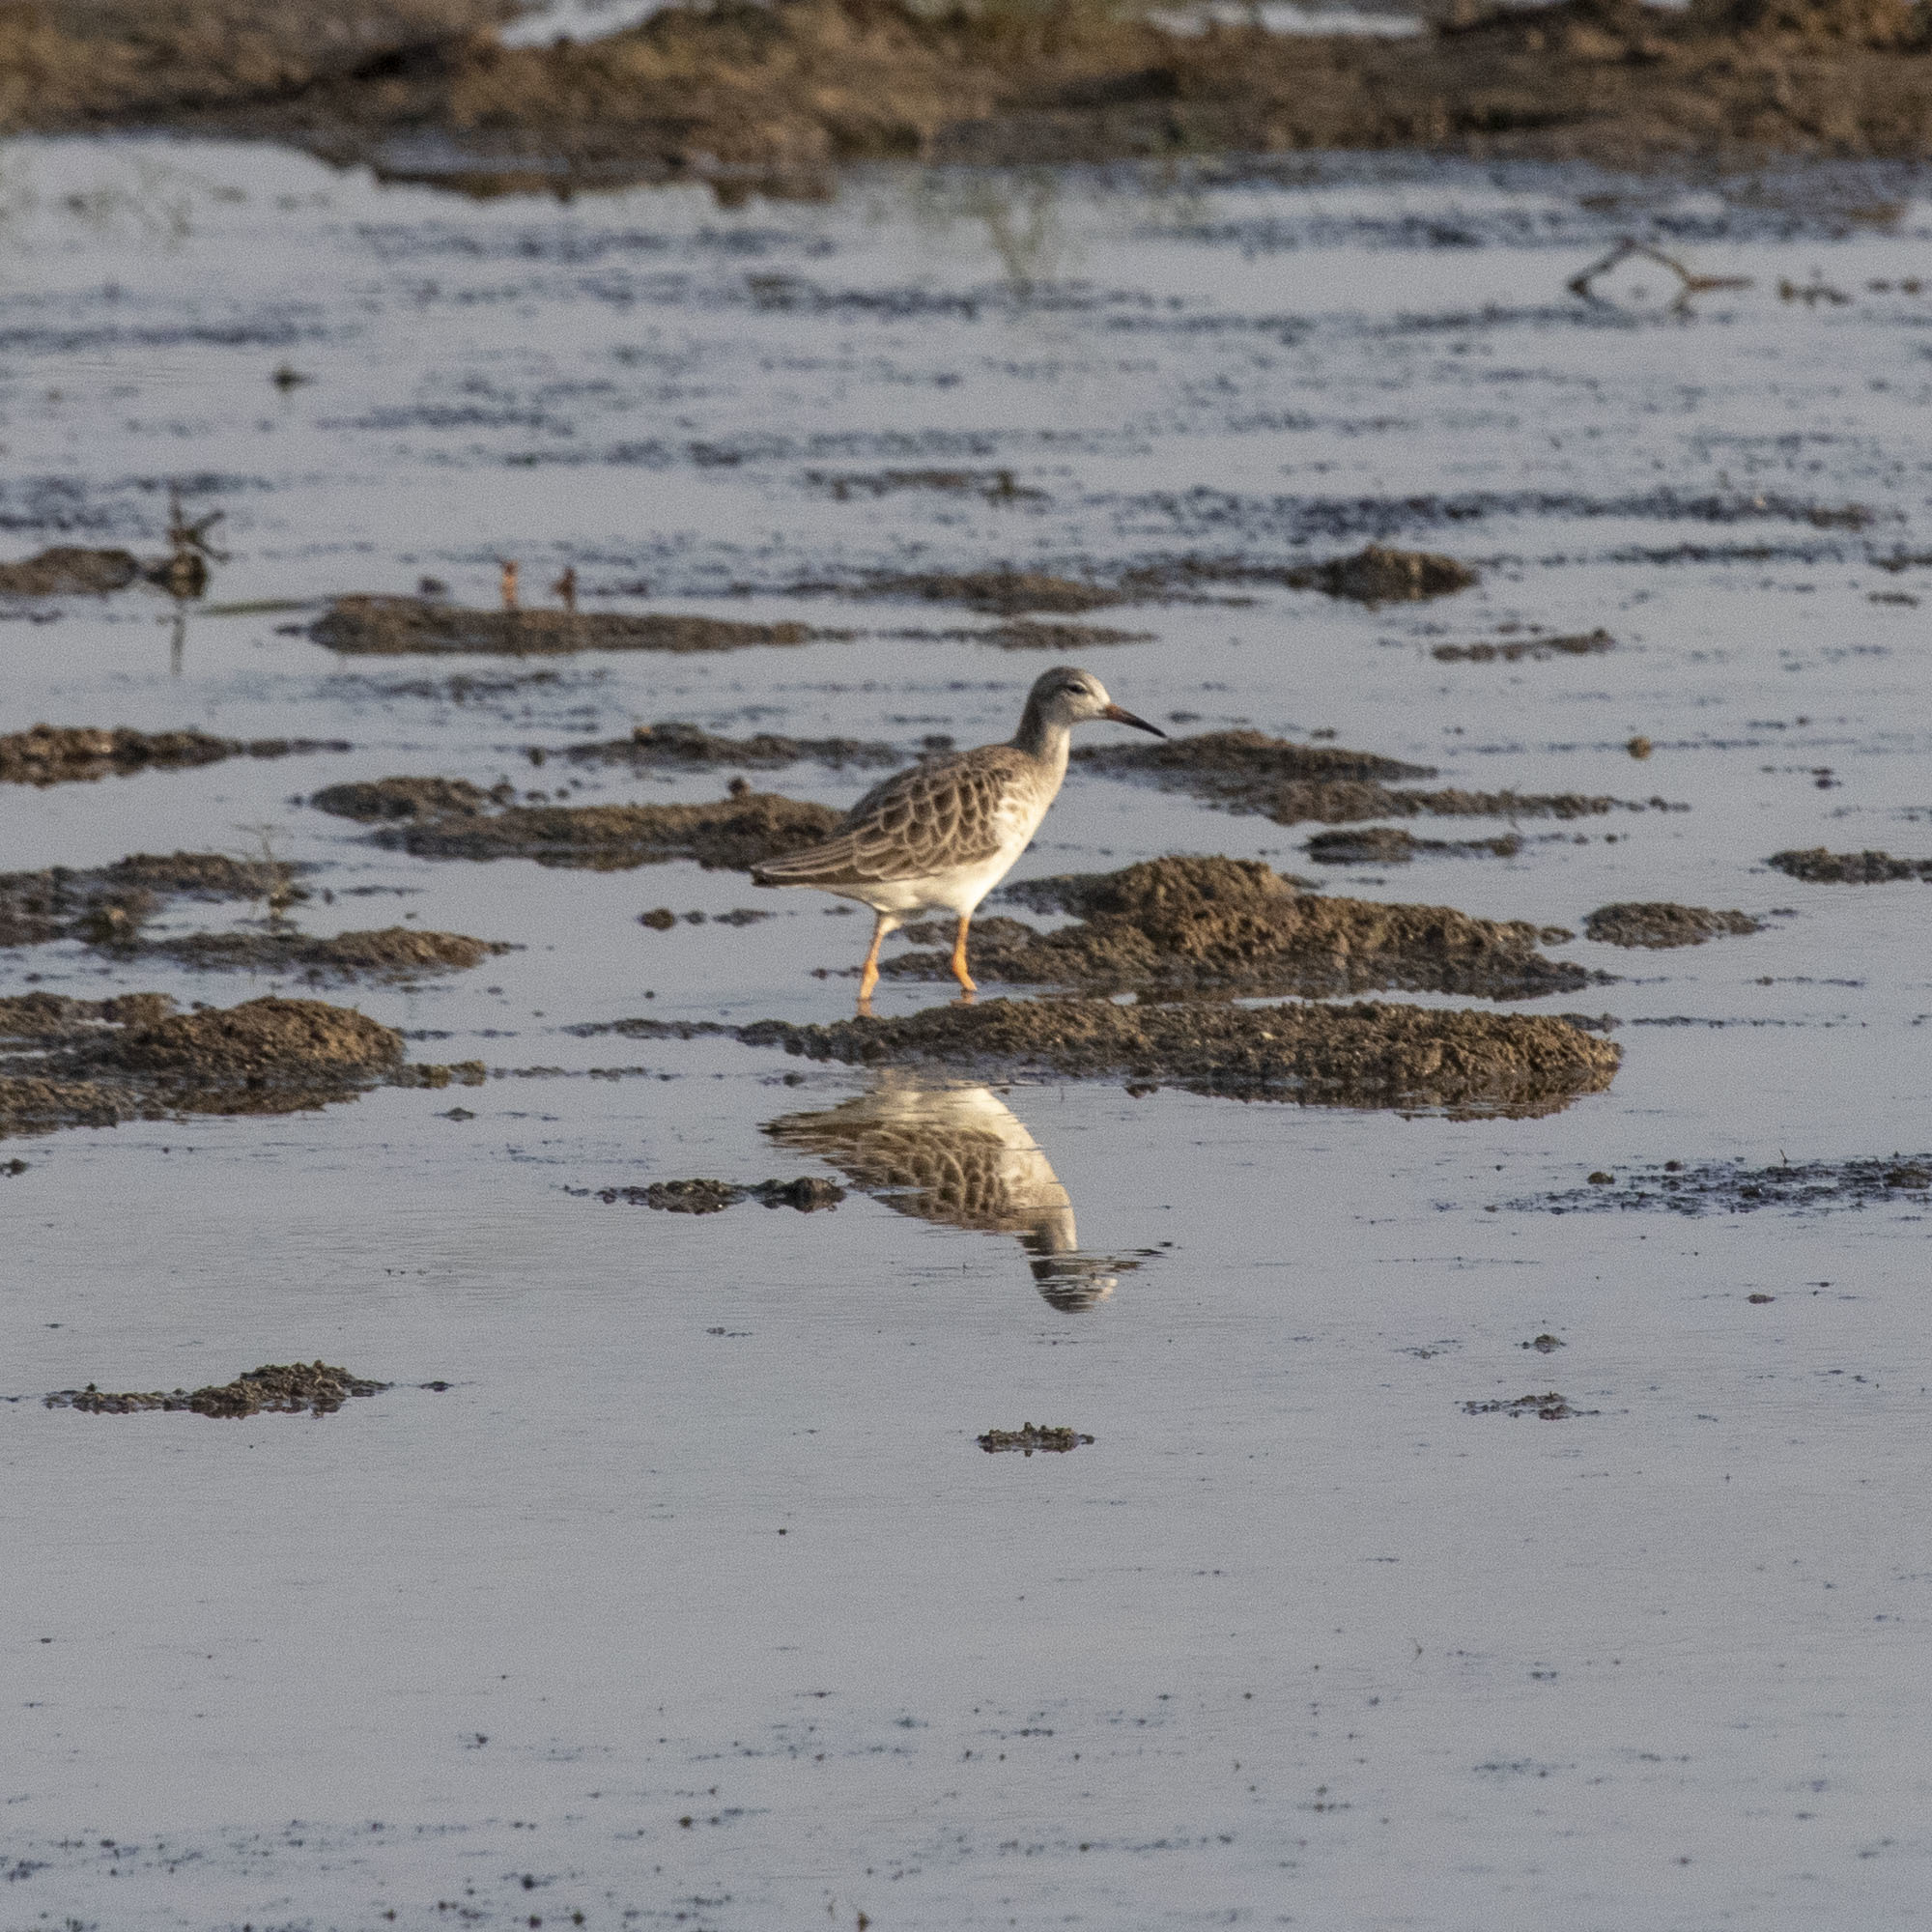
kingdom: Animalia
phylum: Chordata
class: Aves
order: Charadriiformes
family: Scolopacidae
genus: Calidris
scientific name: Calidris pugnax
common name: Ruff
